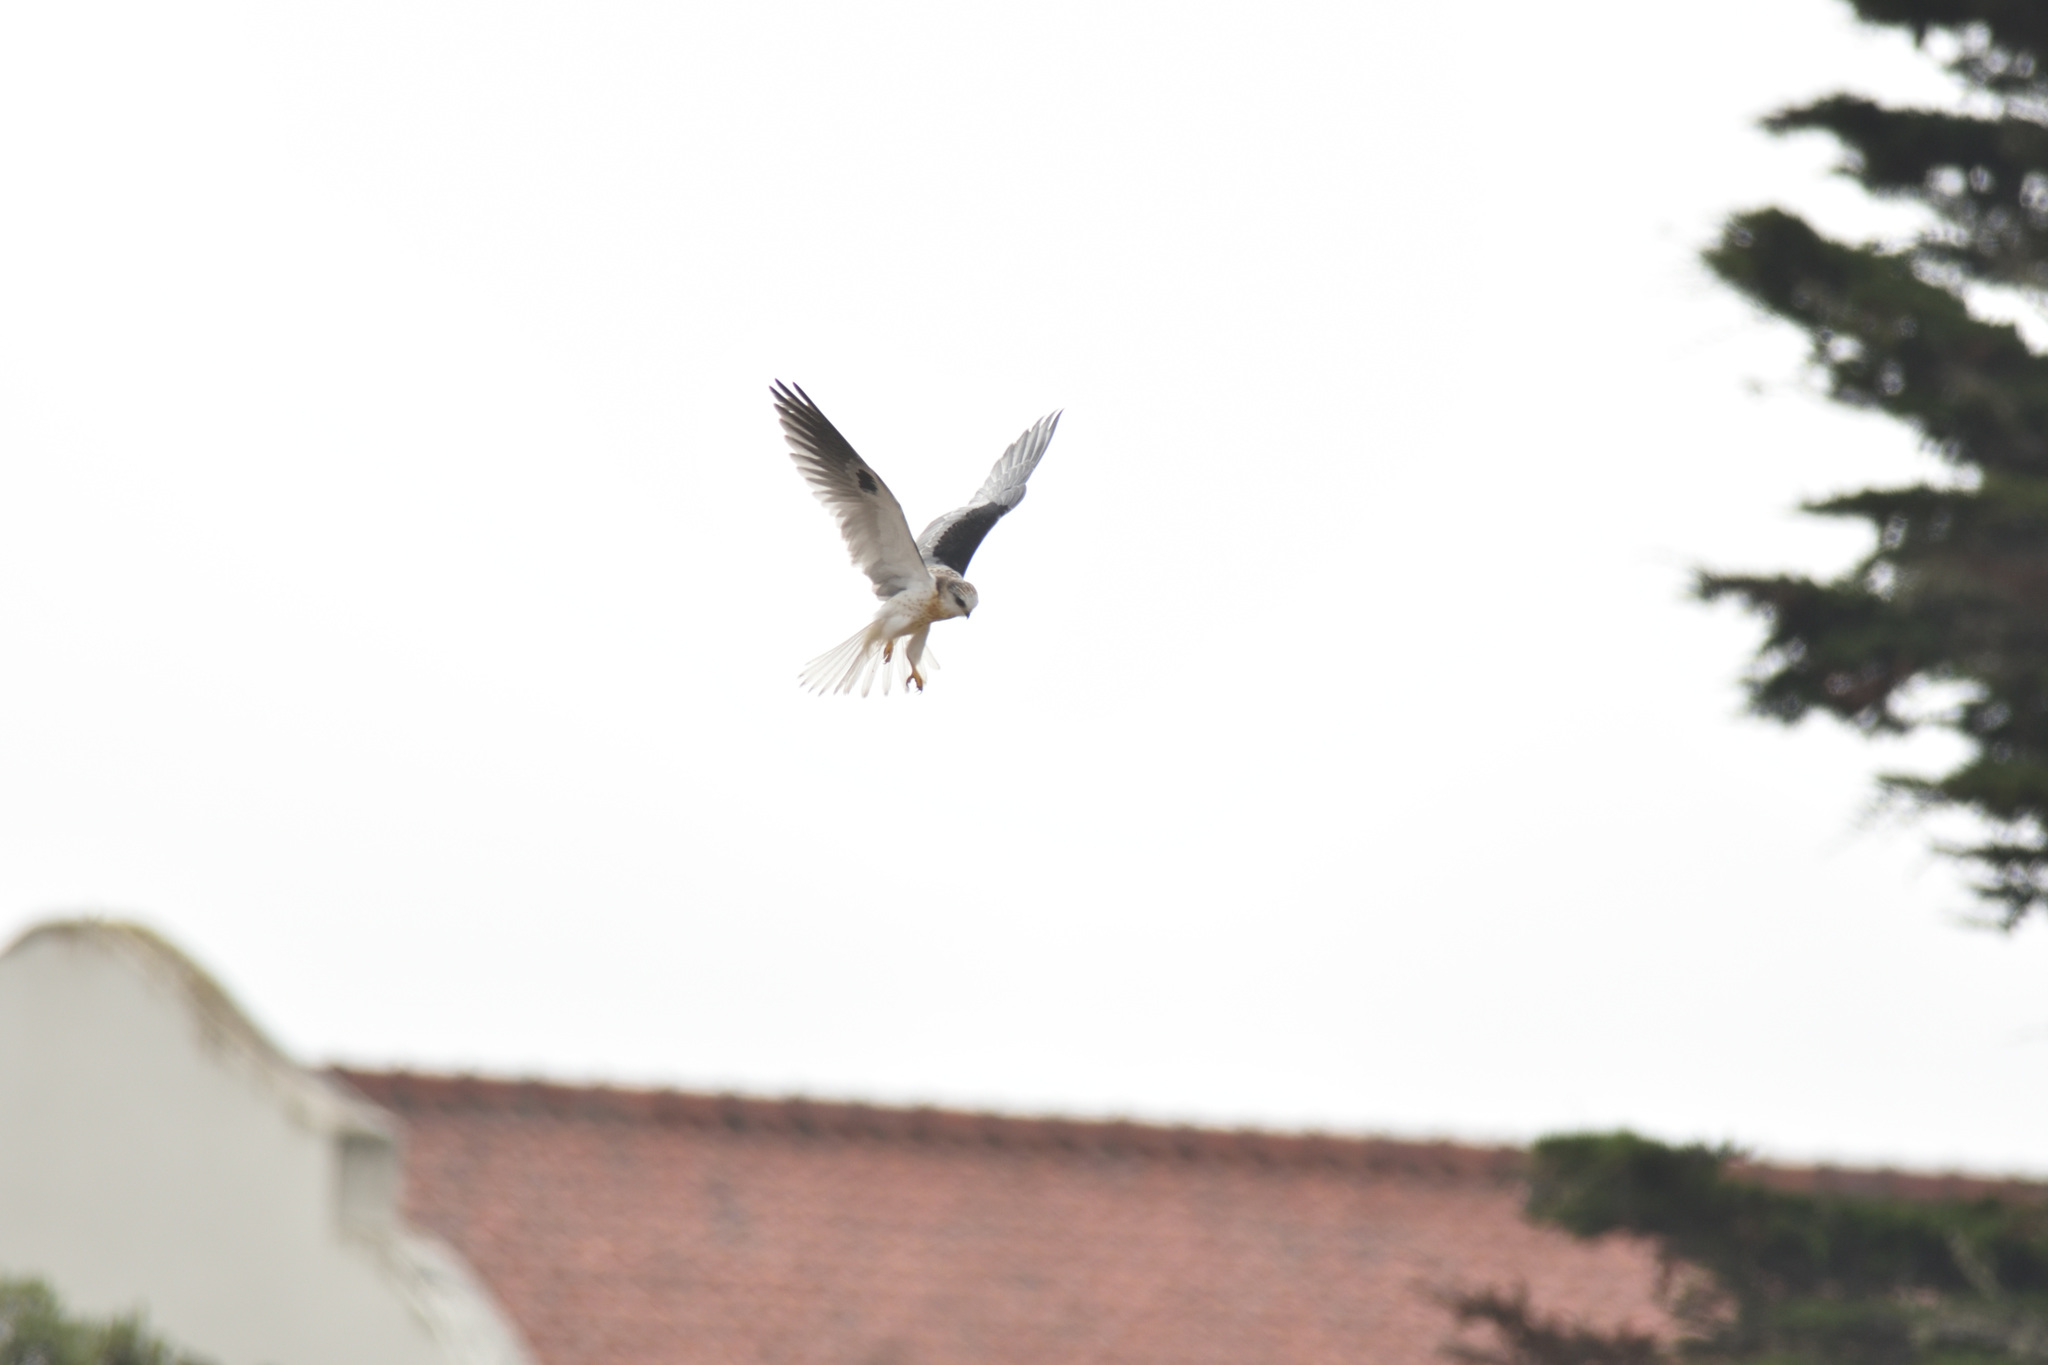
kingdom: Animalia
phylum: Chordata
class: Aves
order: Accipitriformes
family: Accipitridae
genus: Elanus
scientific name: Elanus leucurus
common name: White-tailed kite
